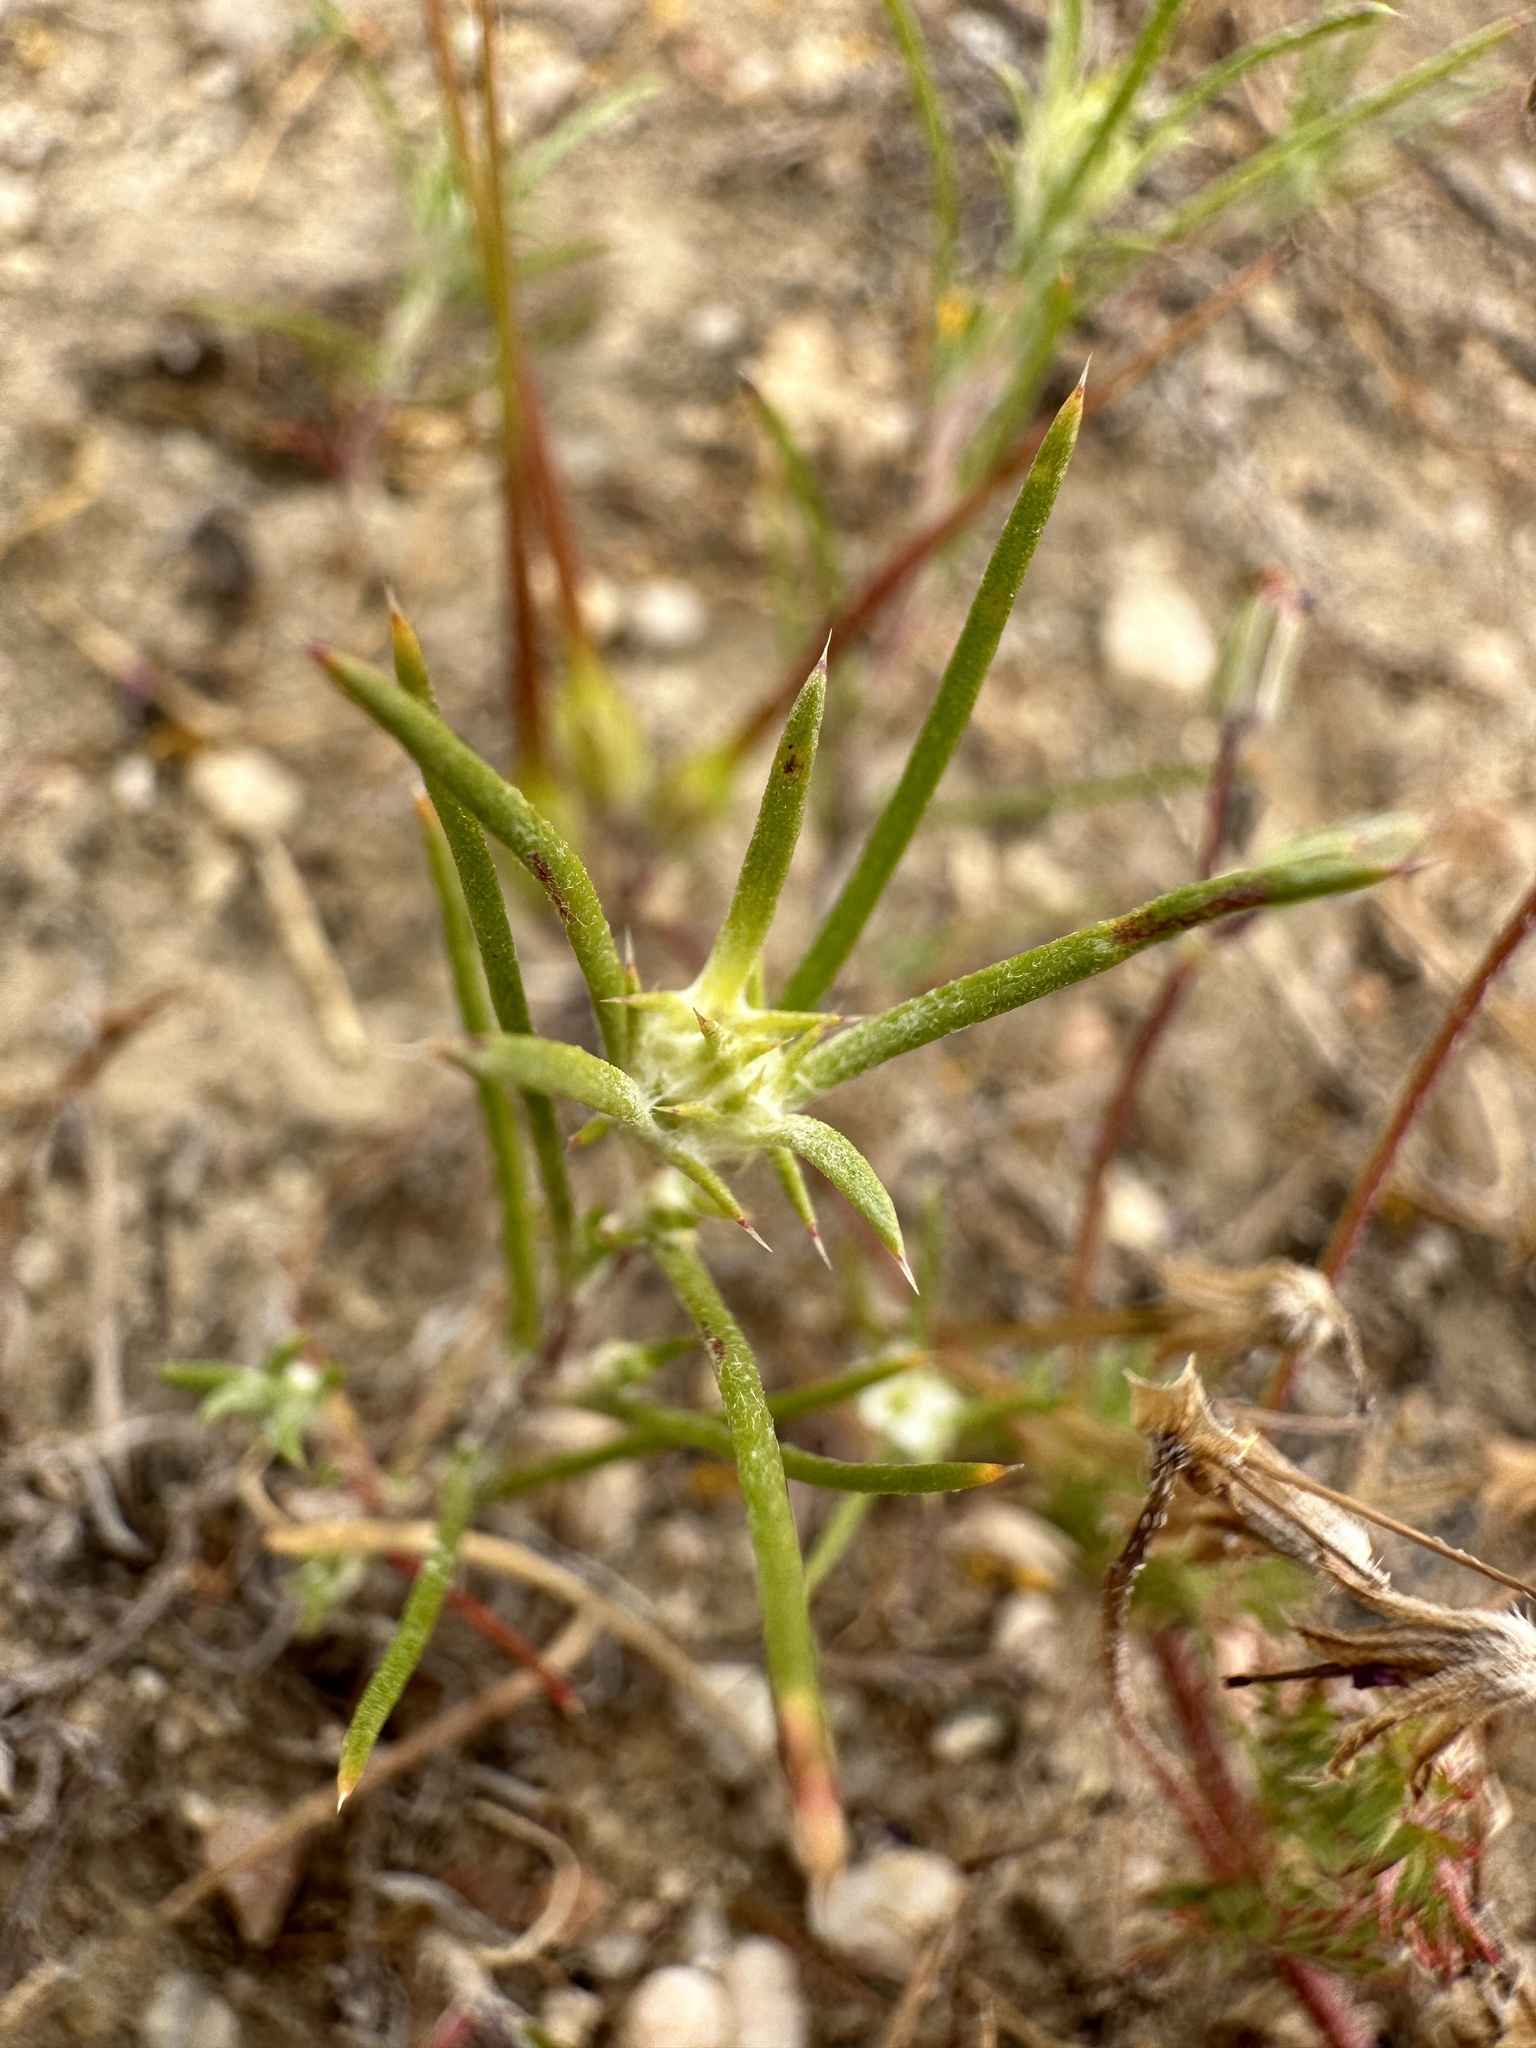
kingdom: Plantae
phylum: Tracheophyta
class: Magnoliopsida
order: Ericales
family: Polemoniaceae
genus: Eriastrum
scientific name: Eriastrum hooveri
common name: Hoover's woolly-star
